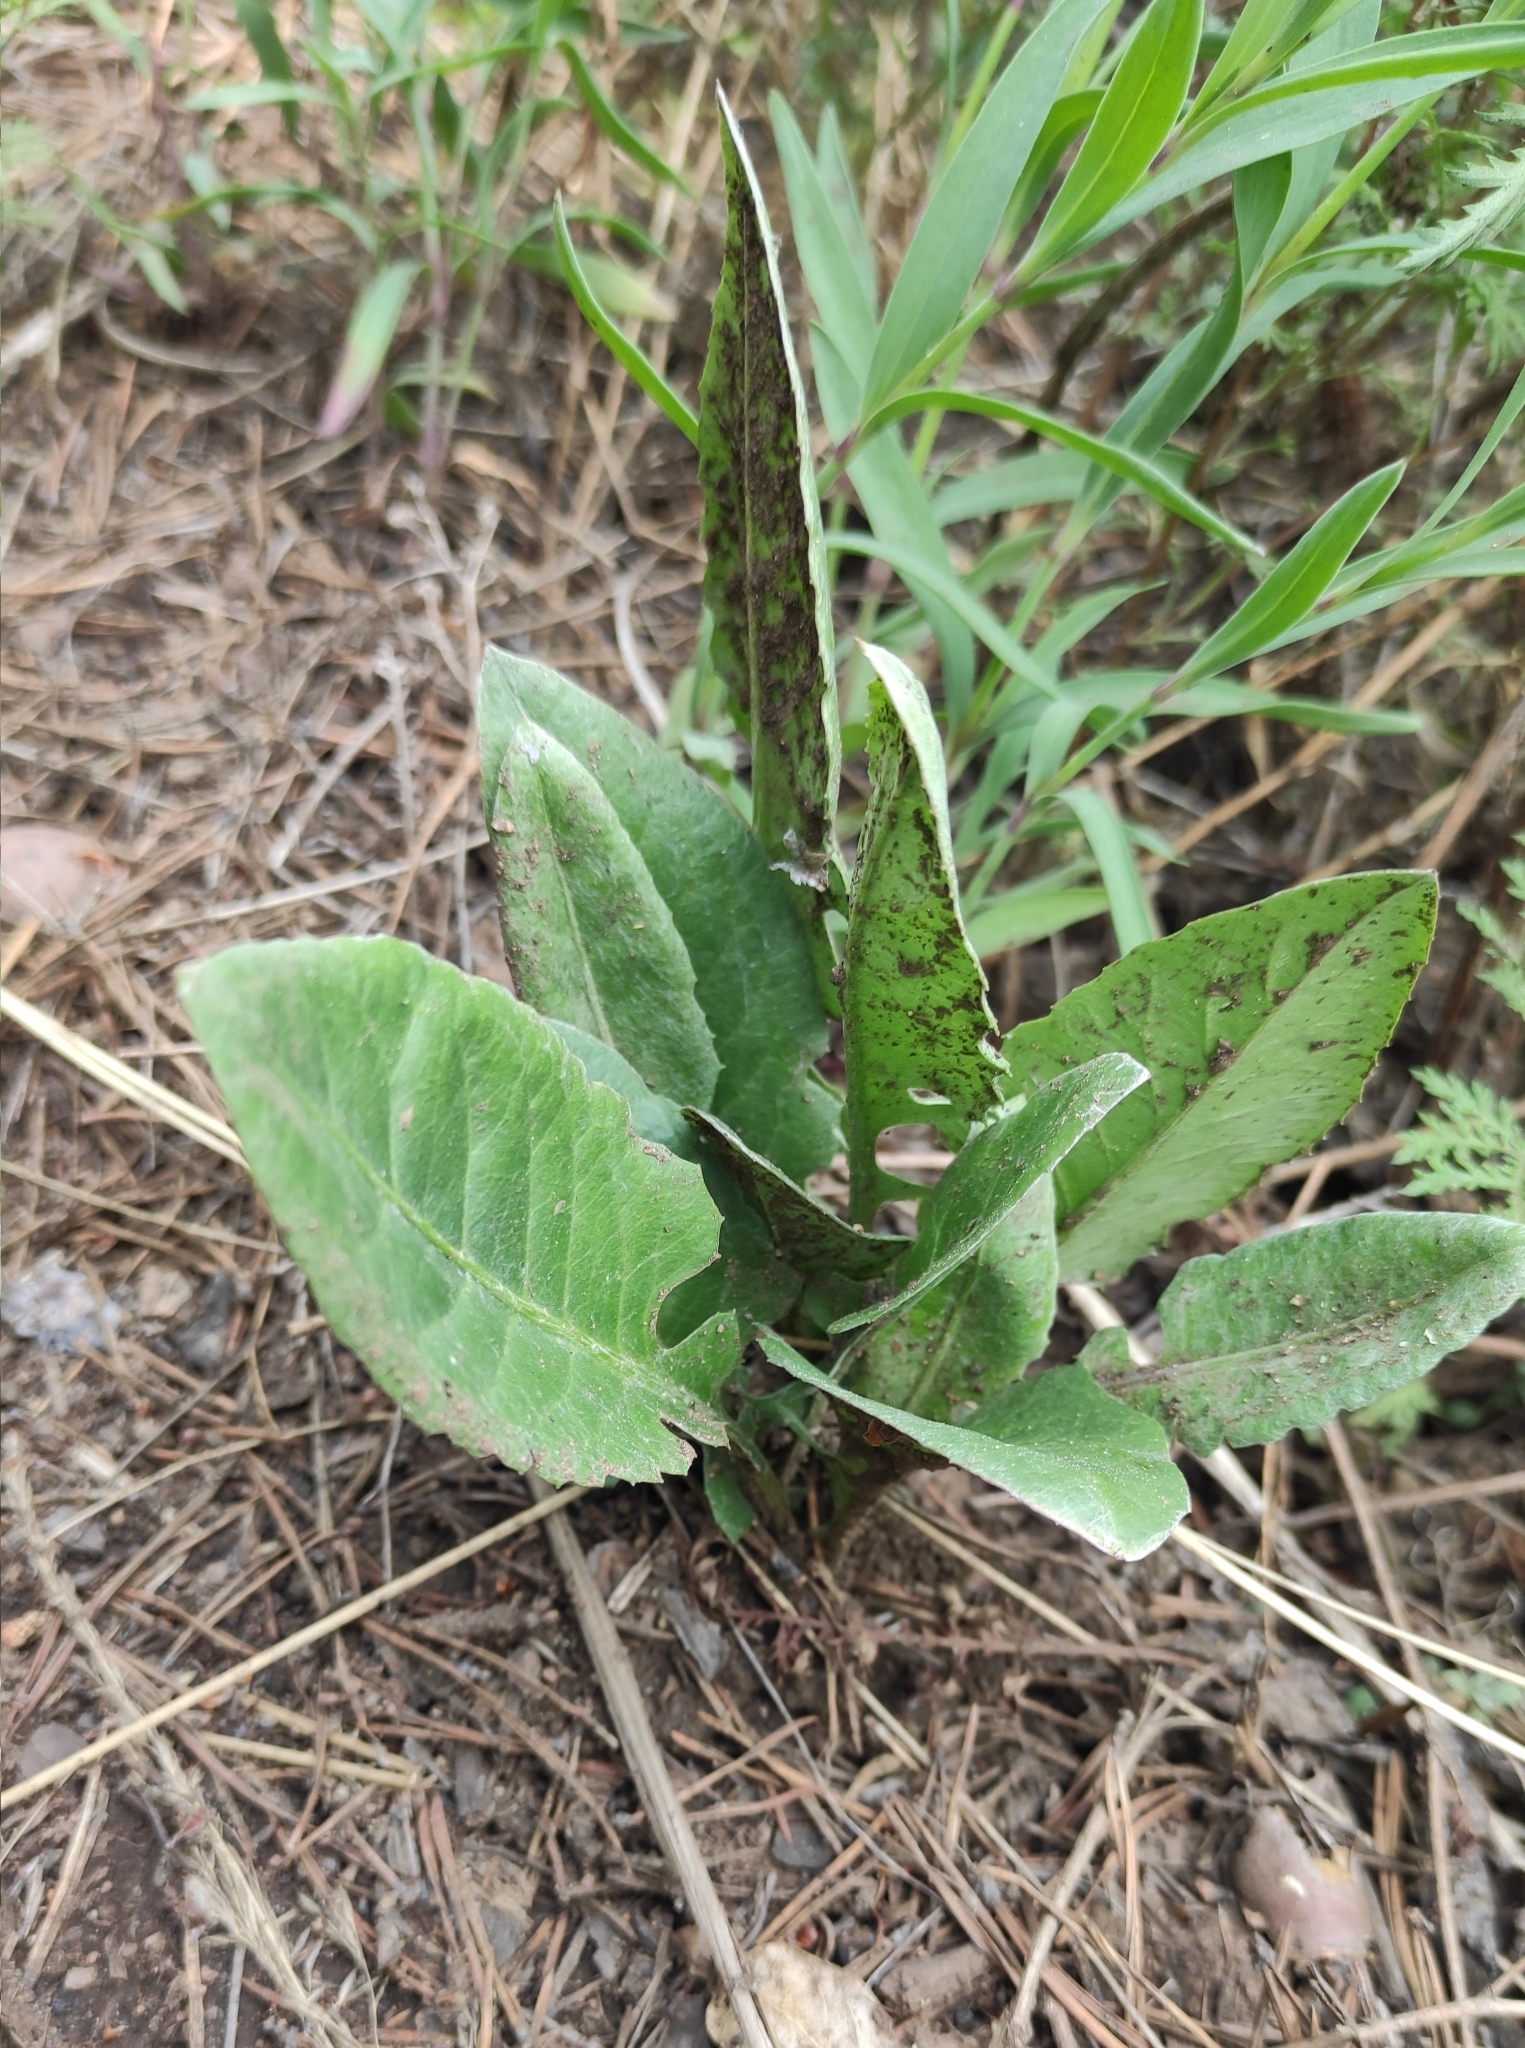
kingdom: Plantae
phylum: Tracheophyta
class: Magnoliopsida
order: Asterales
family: Asteraceae
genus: Leibnitzia
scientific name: Leibnitzia anandria
